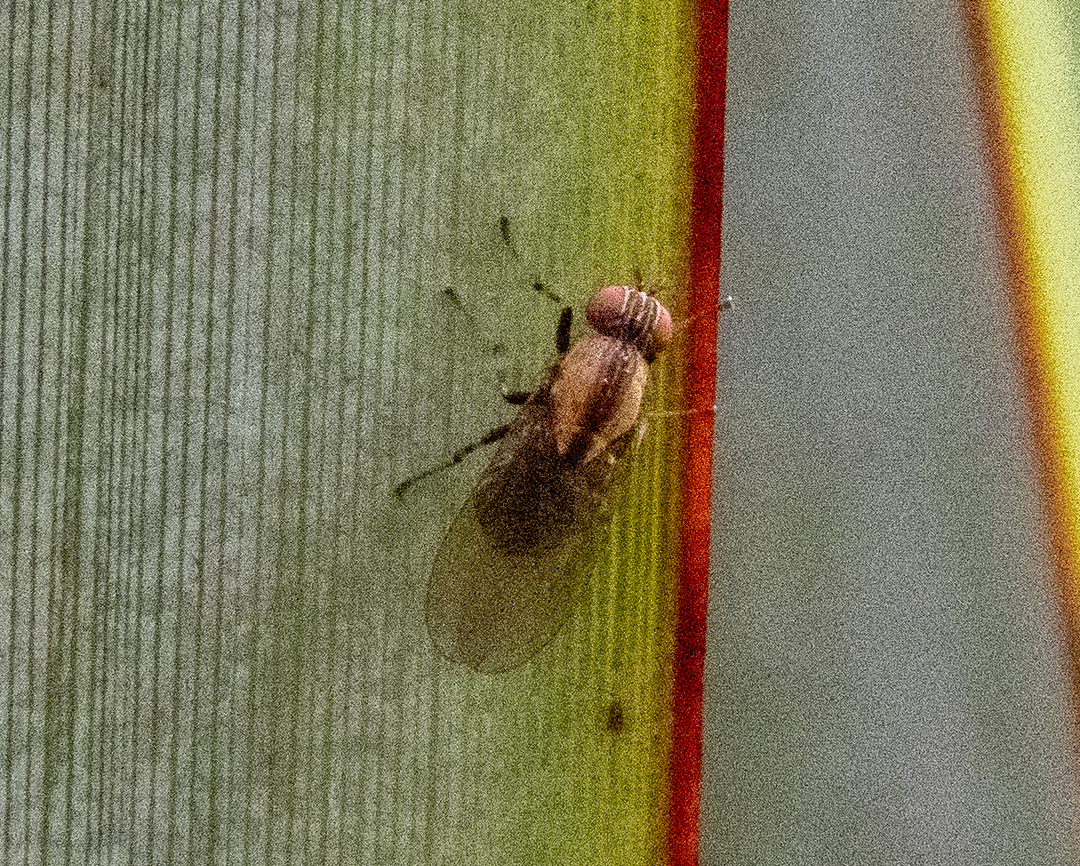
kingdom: Animalia
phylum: Arthropoda
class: Insecta
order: Diptera
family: Lauxaniidae
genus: Sapromyza
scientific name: Sapromyza neozelandica
